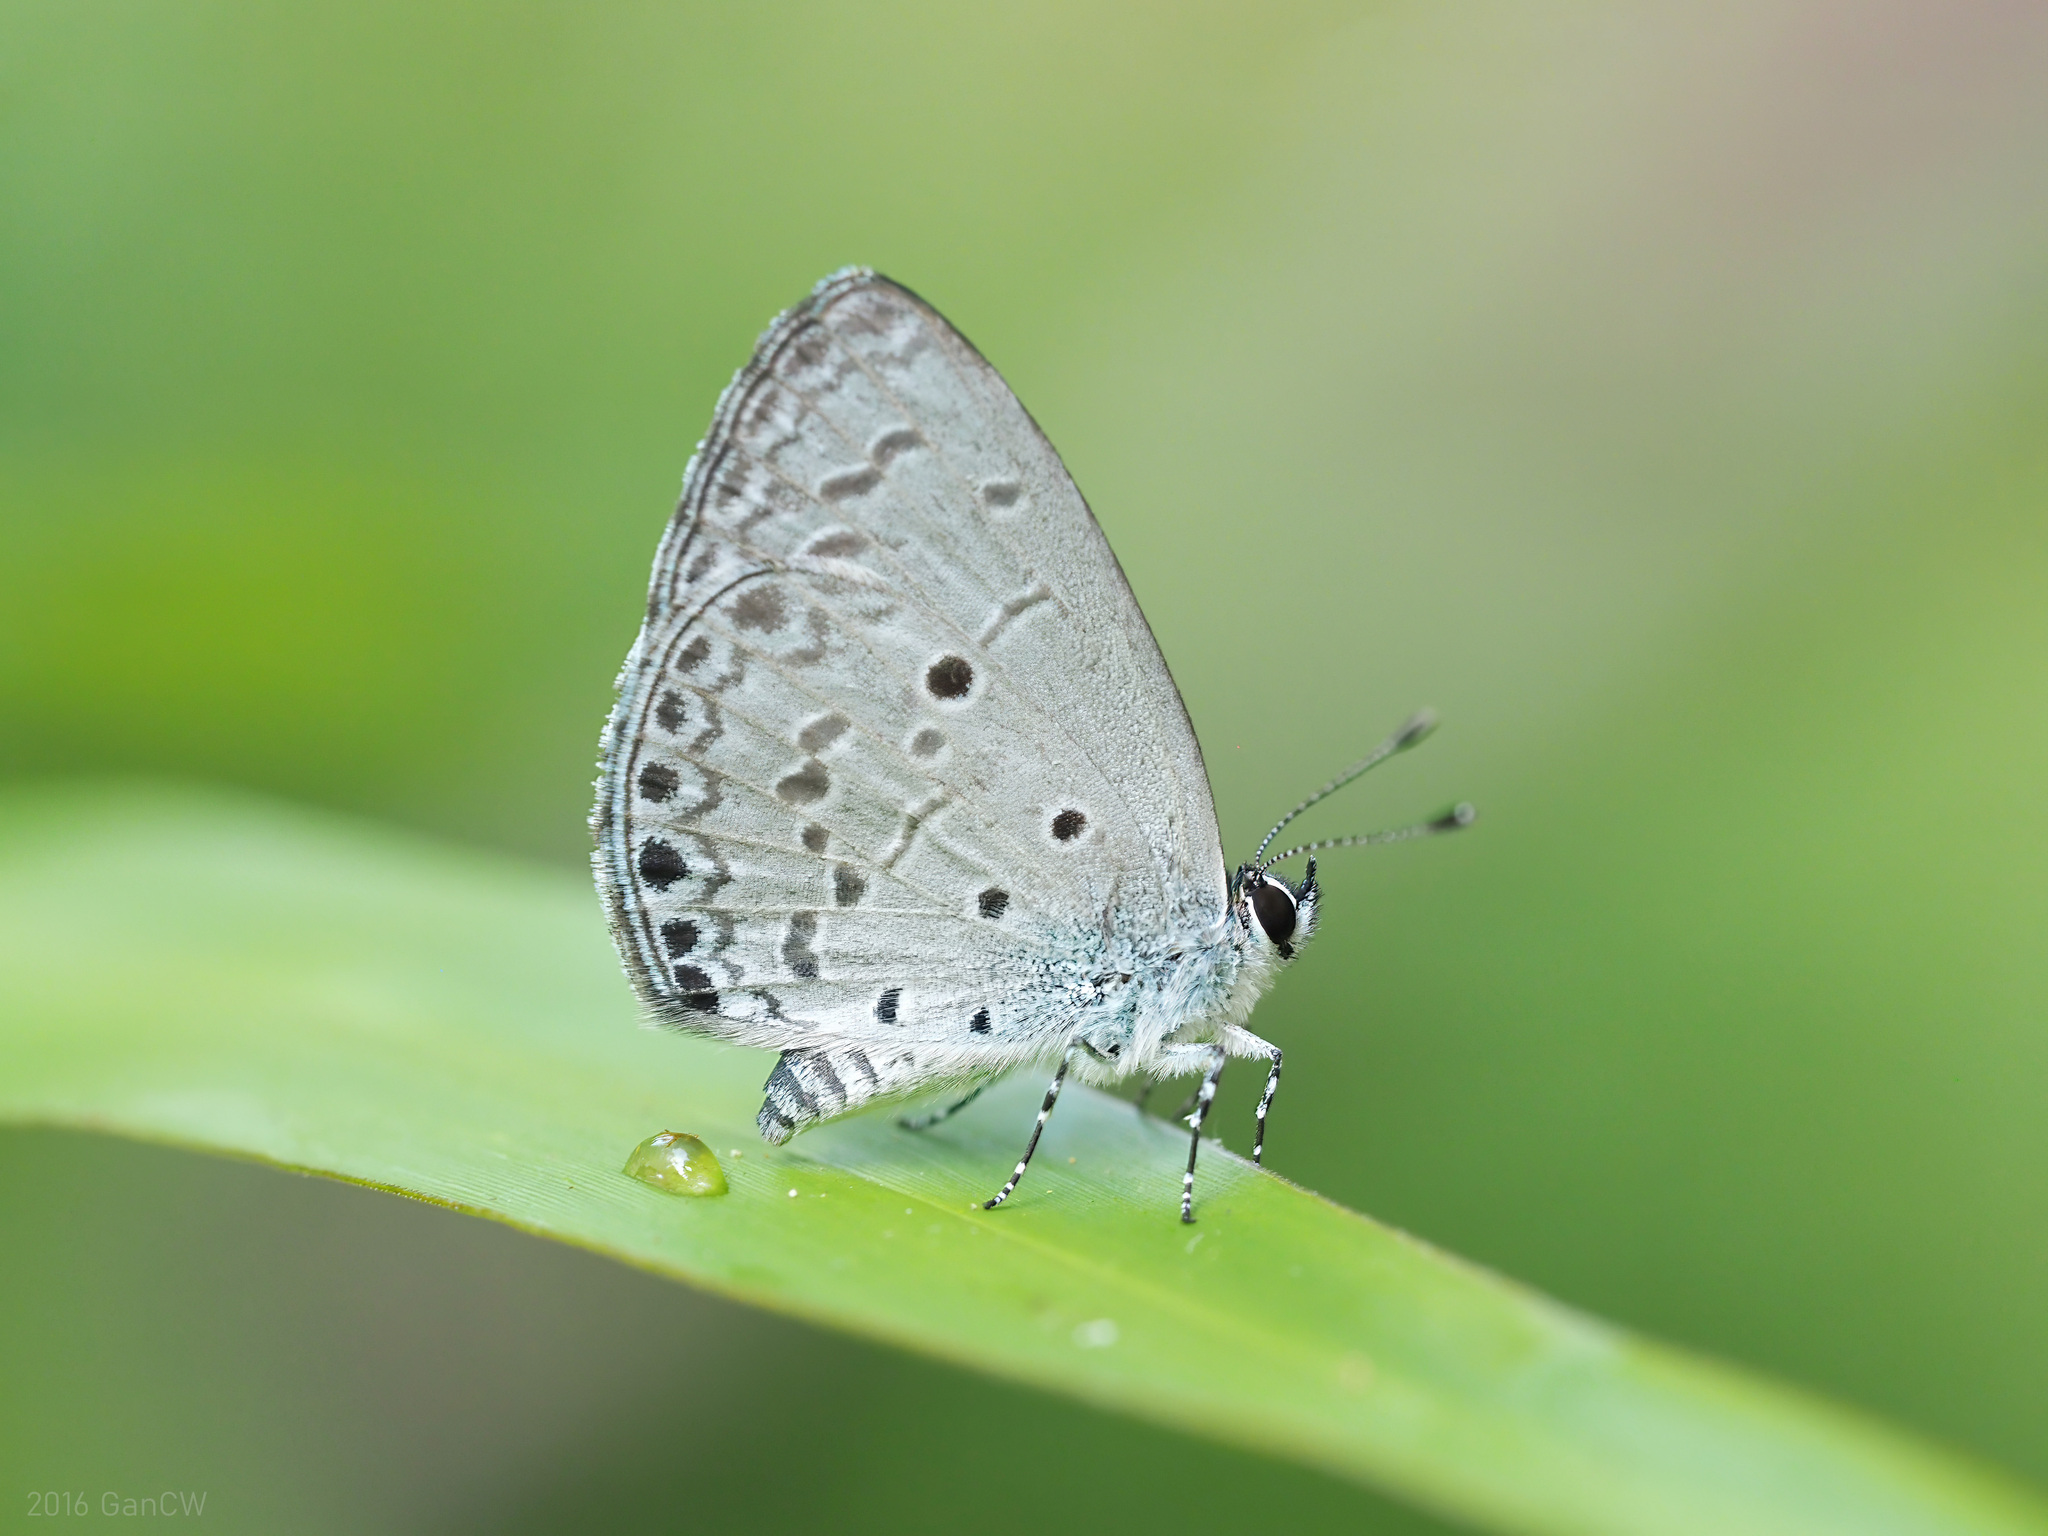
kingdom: Animalia
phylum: Arthropoda
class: Insecta
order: Lepidoptera
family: Lycaenidae
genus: Celastrina
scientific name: Celastrina lavendularis
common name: Plain hedge blue
